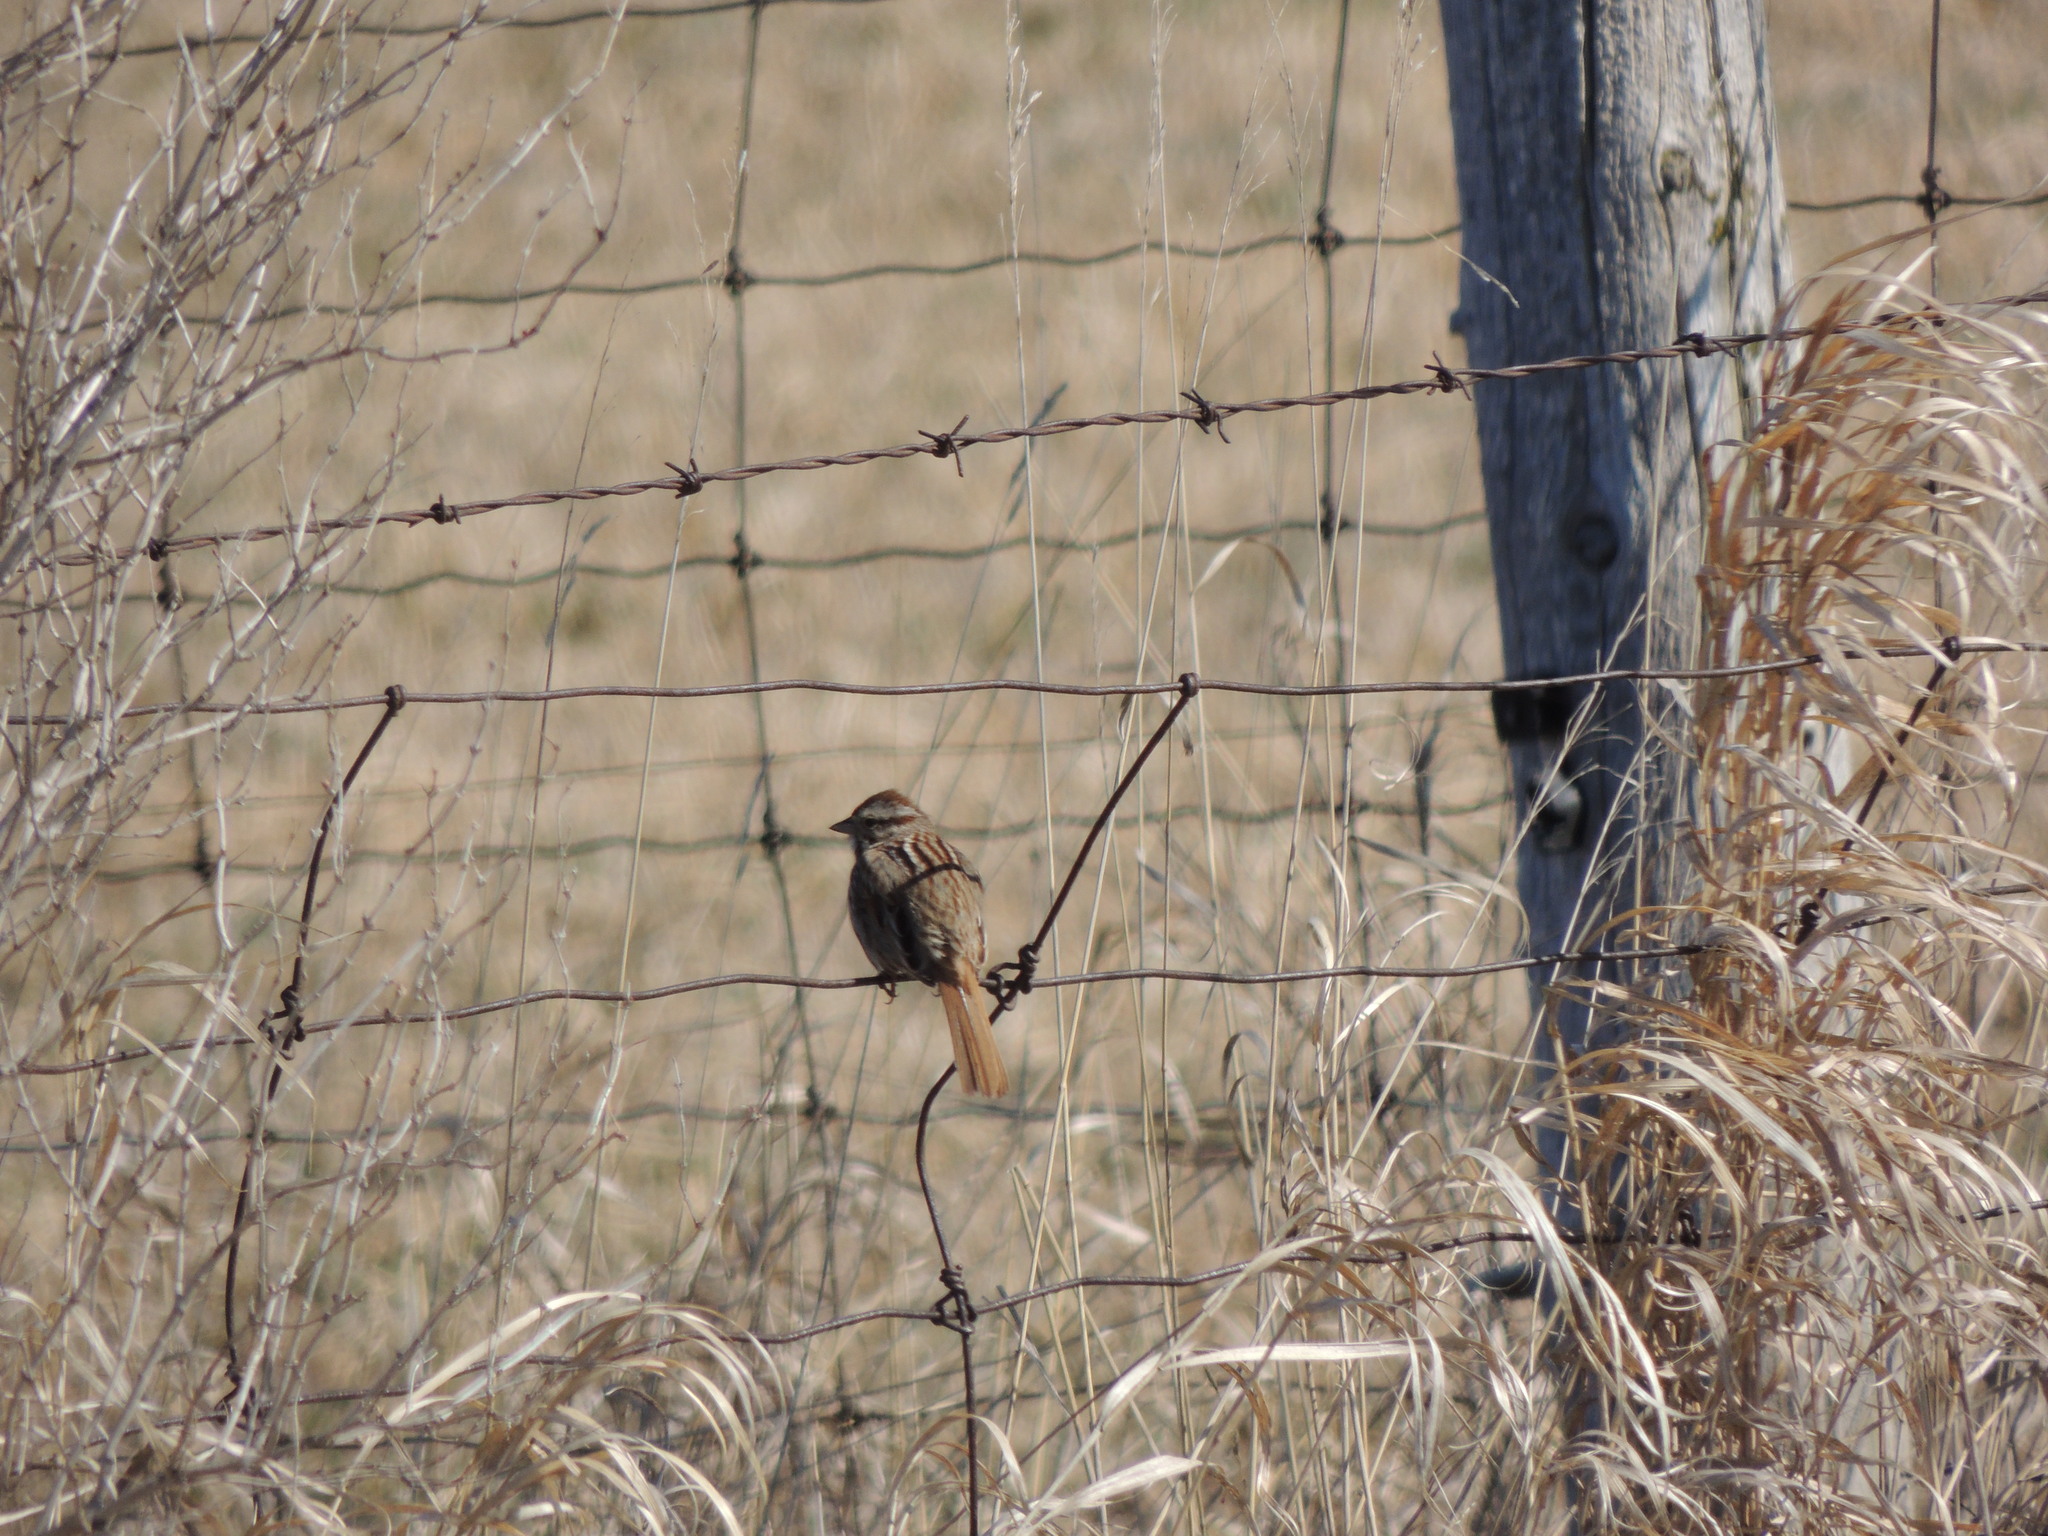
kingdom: Animalia
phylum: Chordata
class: Aves
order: Passeriformes
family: Passerellidae
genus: Melospiza
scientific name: Melospiza melodia
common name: Song sparrow
